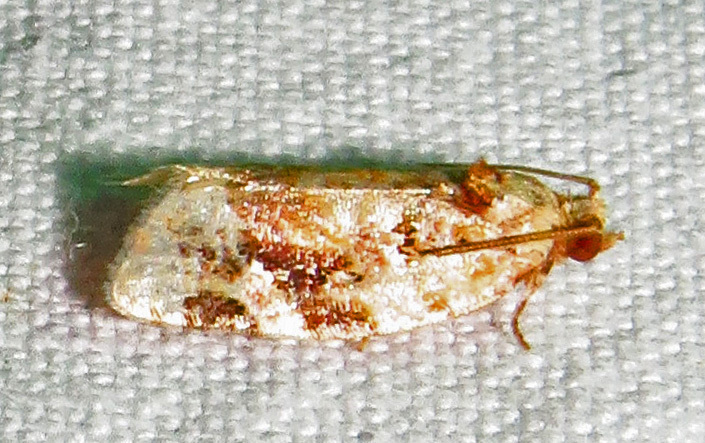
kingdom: Animalia
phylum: Arthropoda
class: Insecta
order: Lepidoptera
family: Tortricidae
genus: Argyrotaenia
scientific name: Argyrotaenia velutinana
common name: Red-banded leafroller moth
